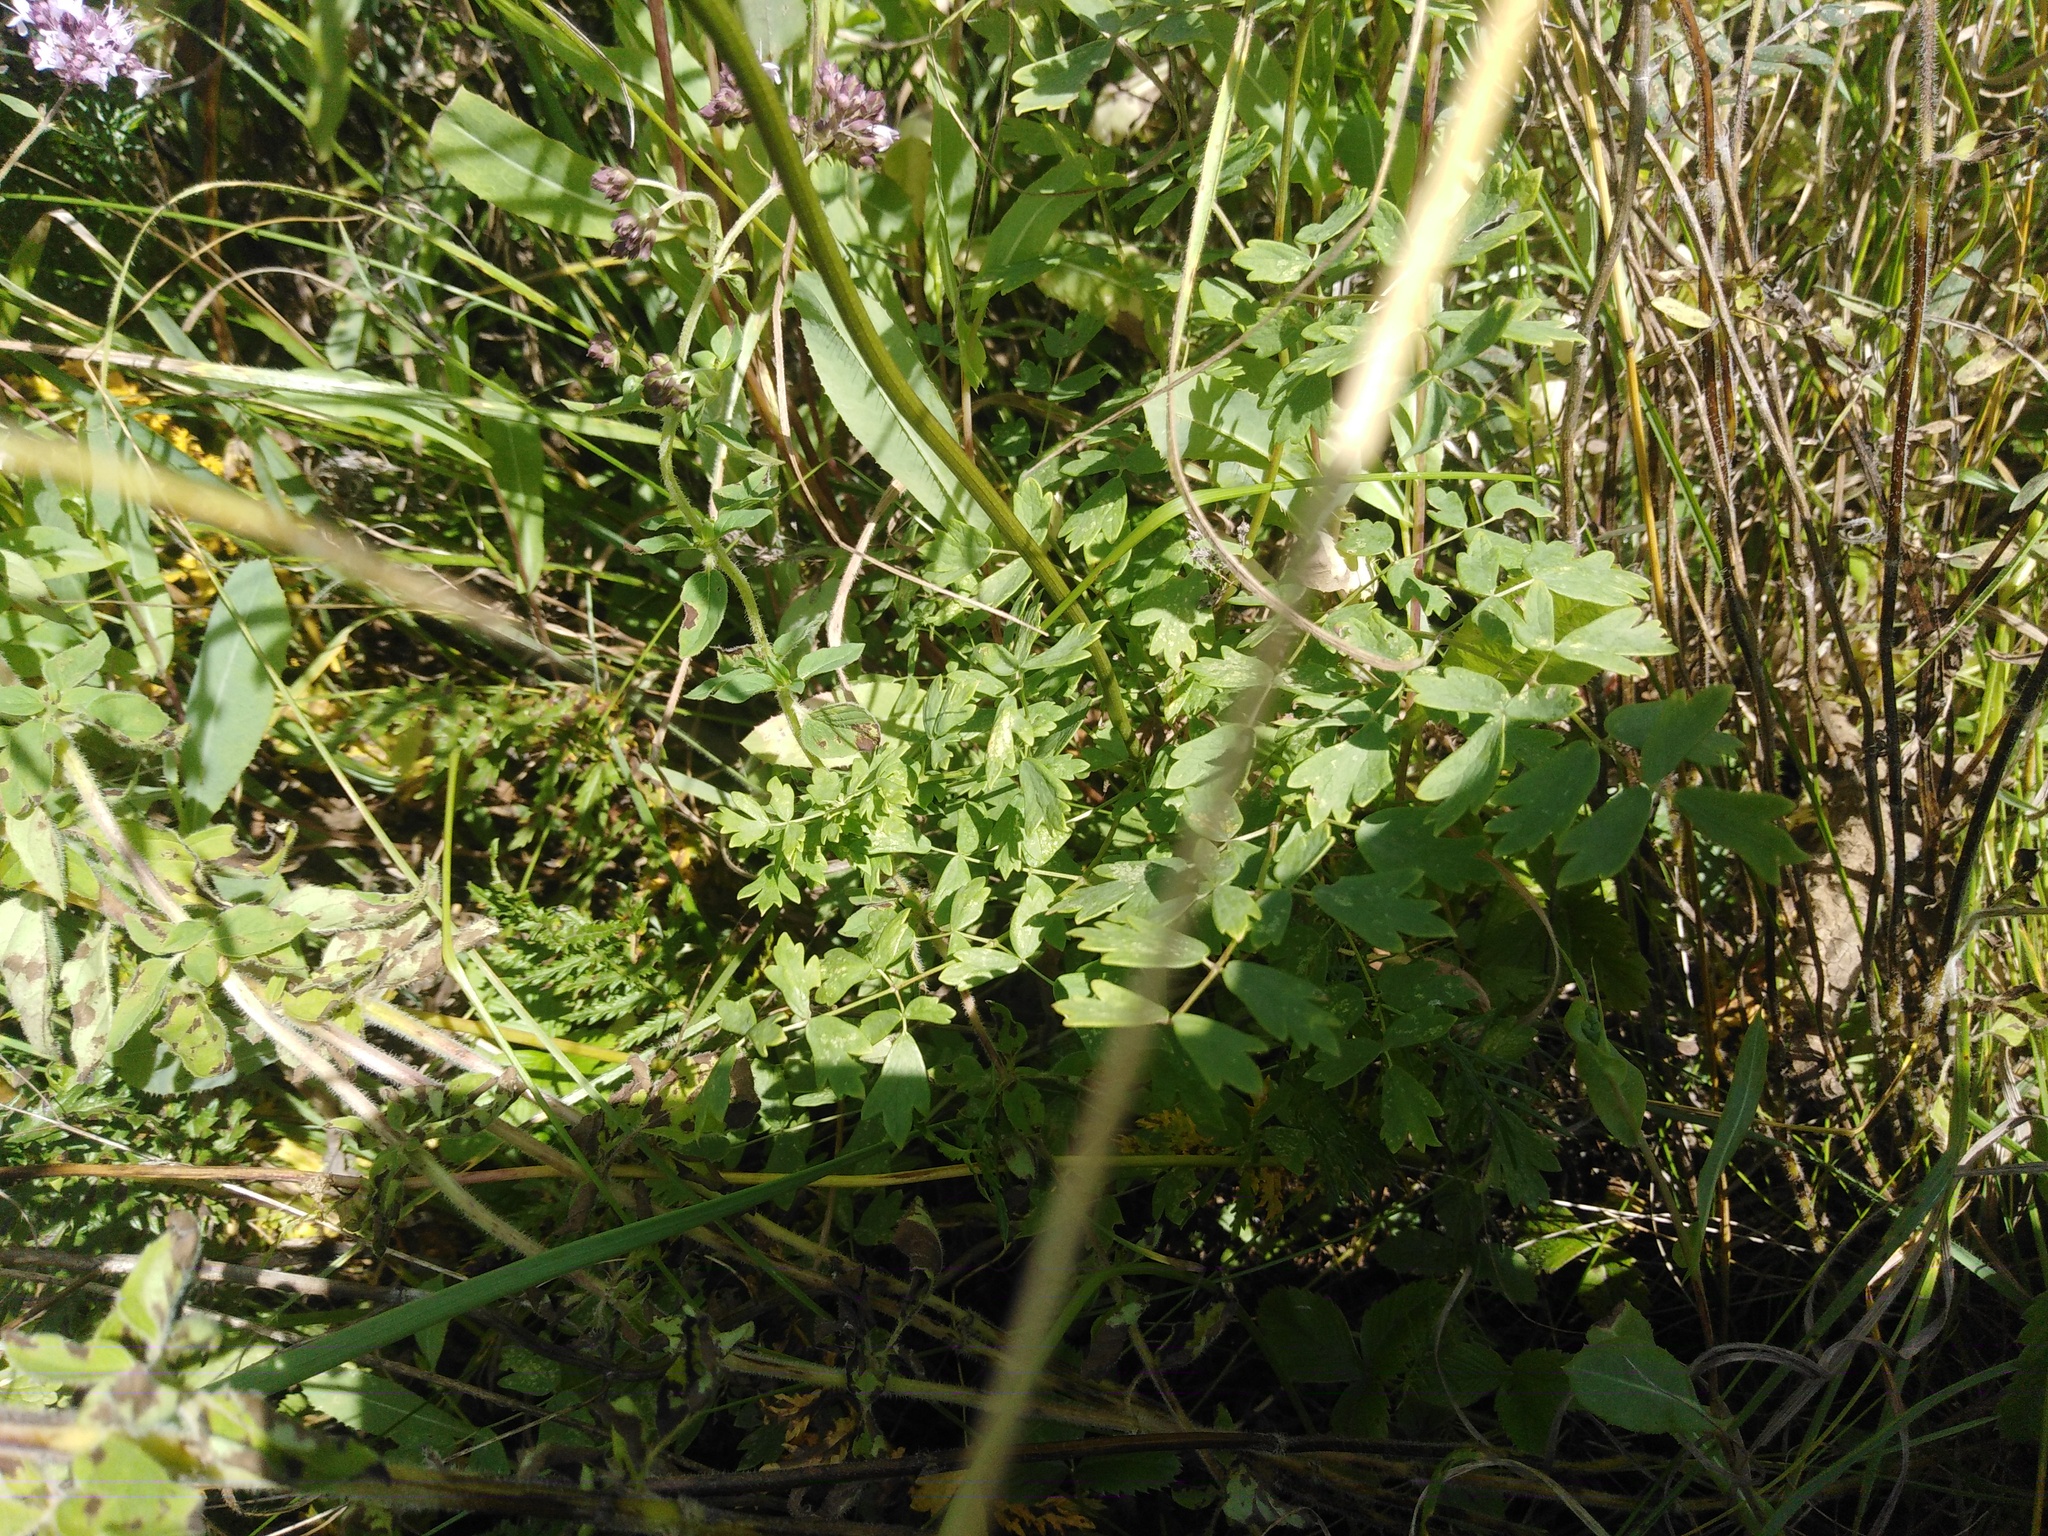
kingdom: Plantae
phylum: Tracheophyta
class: Magnoliopsida
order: Ranunculales
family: Ranunculaceae
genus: Thalictrum
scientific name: Thalictrum minus
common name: Lesser meadow-rue
